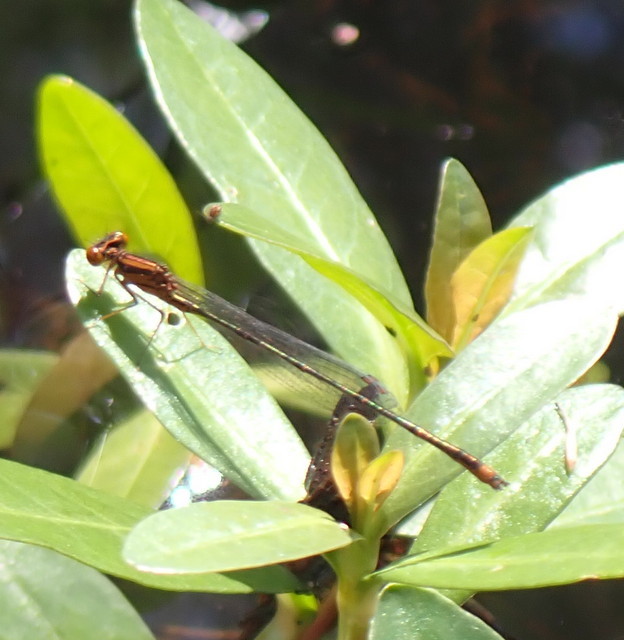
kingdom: Animalia
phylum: Arthropoda
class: Insecta
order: Odonata
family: Coenagrionidae
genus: Enallagma
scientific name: Enallagma pollutum
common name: Florida bluet
